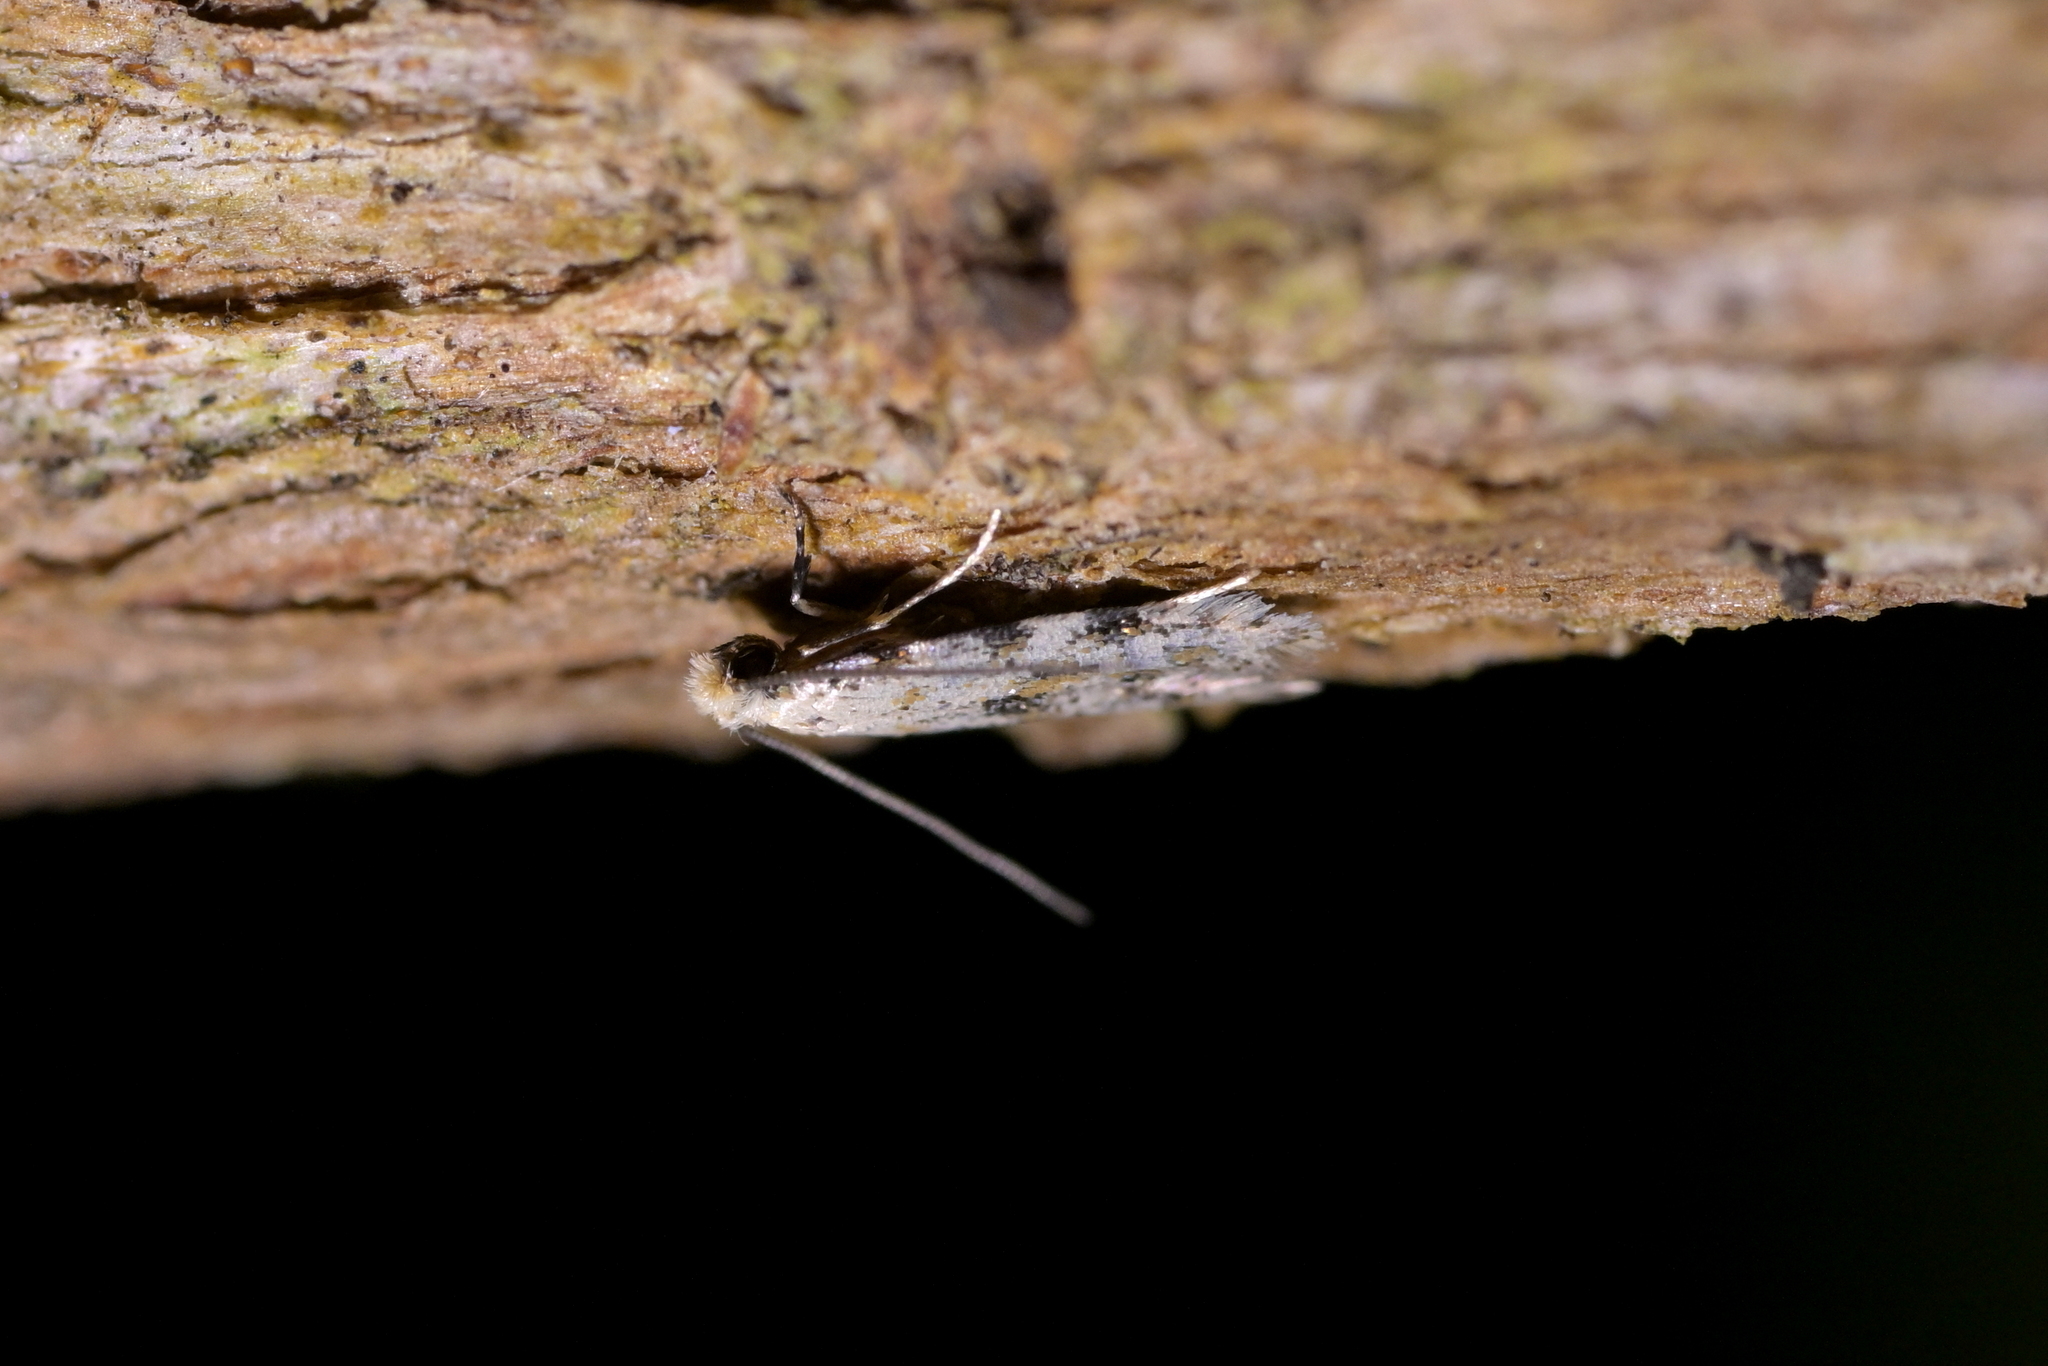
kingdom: Animalia
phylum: Arthropoda
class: Insecta
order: Lepidoptera
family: Tineidae
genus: Crypsitricha
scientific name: Crypsitricha stereota
